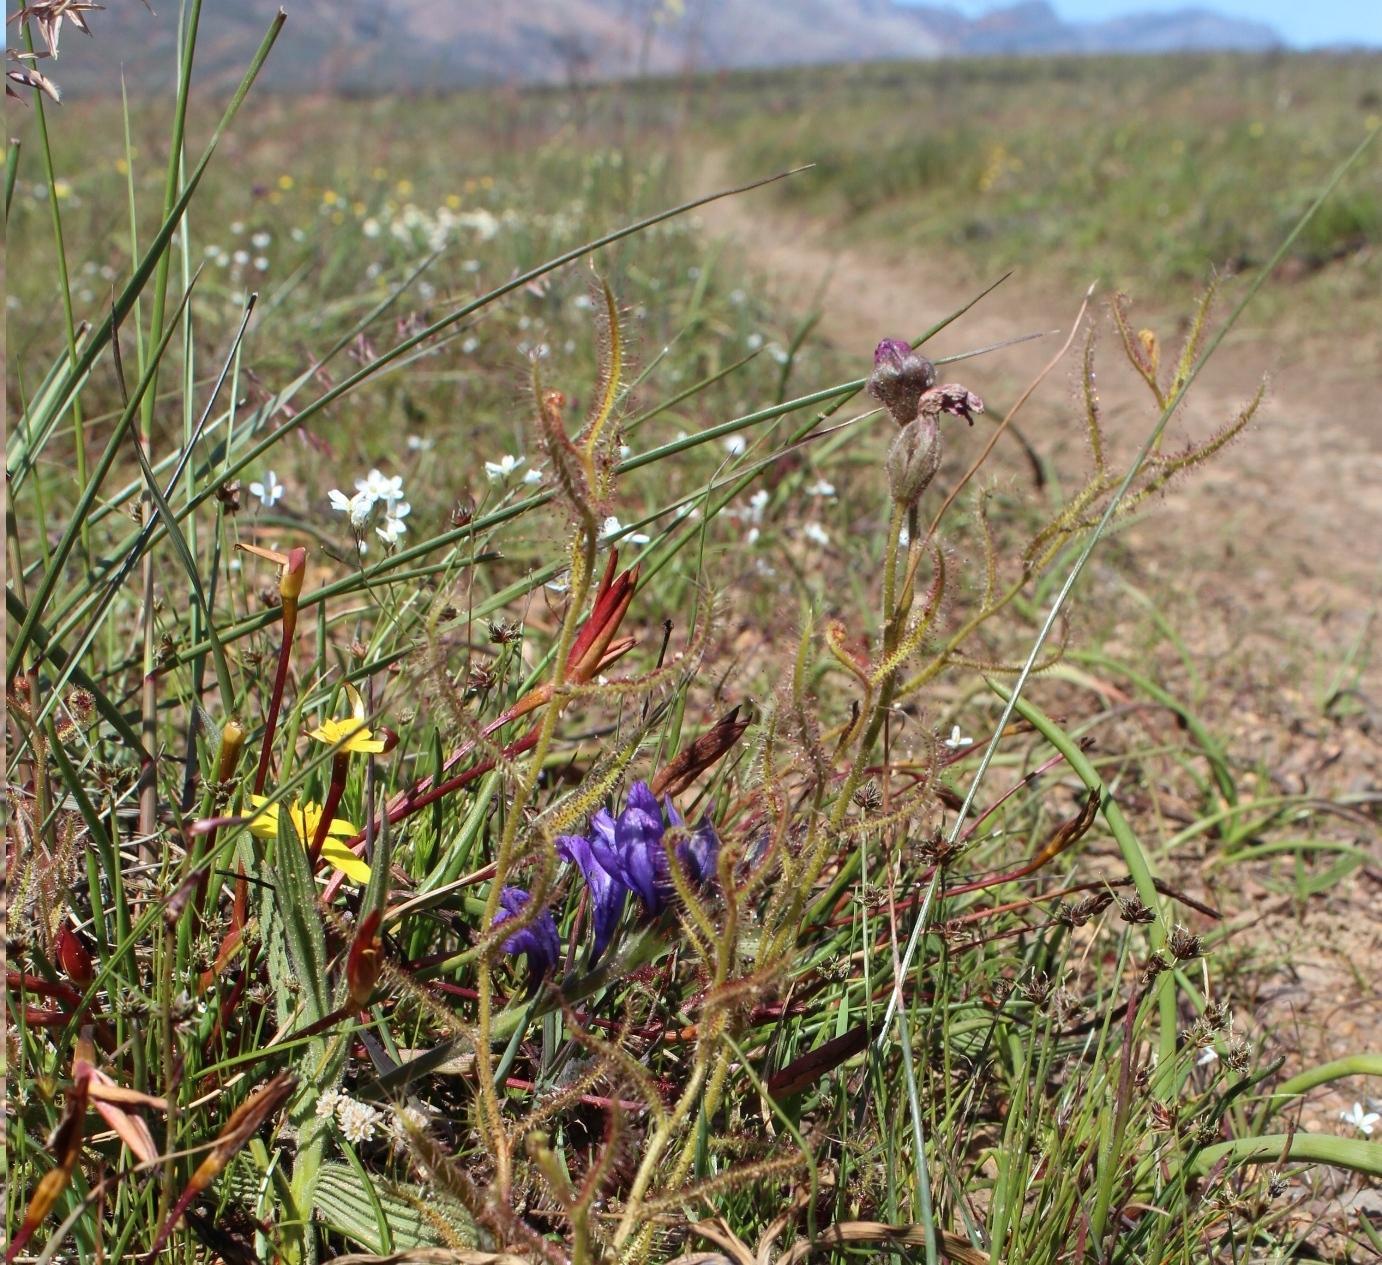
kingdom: Plantae
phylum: Tracheophyta
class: Magnoliopsida
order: Brassicales
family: Brassicaceae
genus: Heliophila
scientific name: Heliophila pusilla
